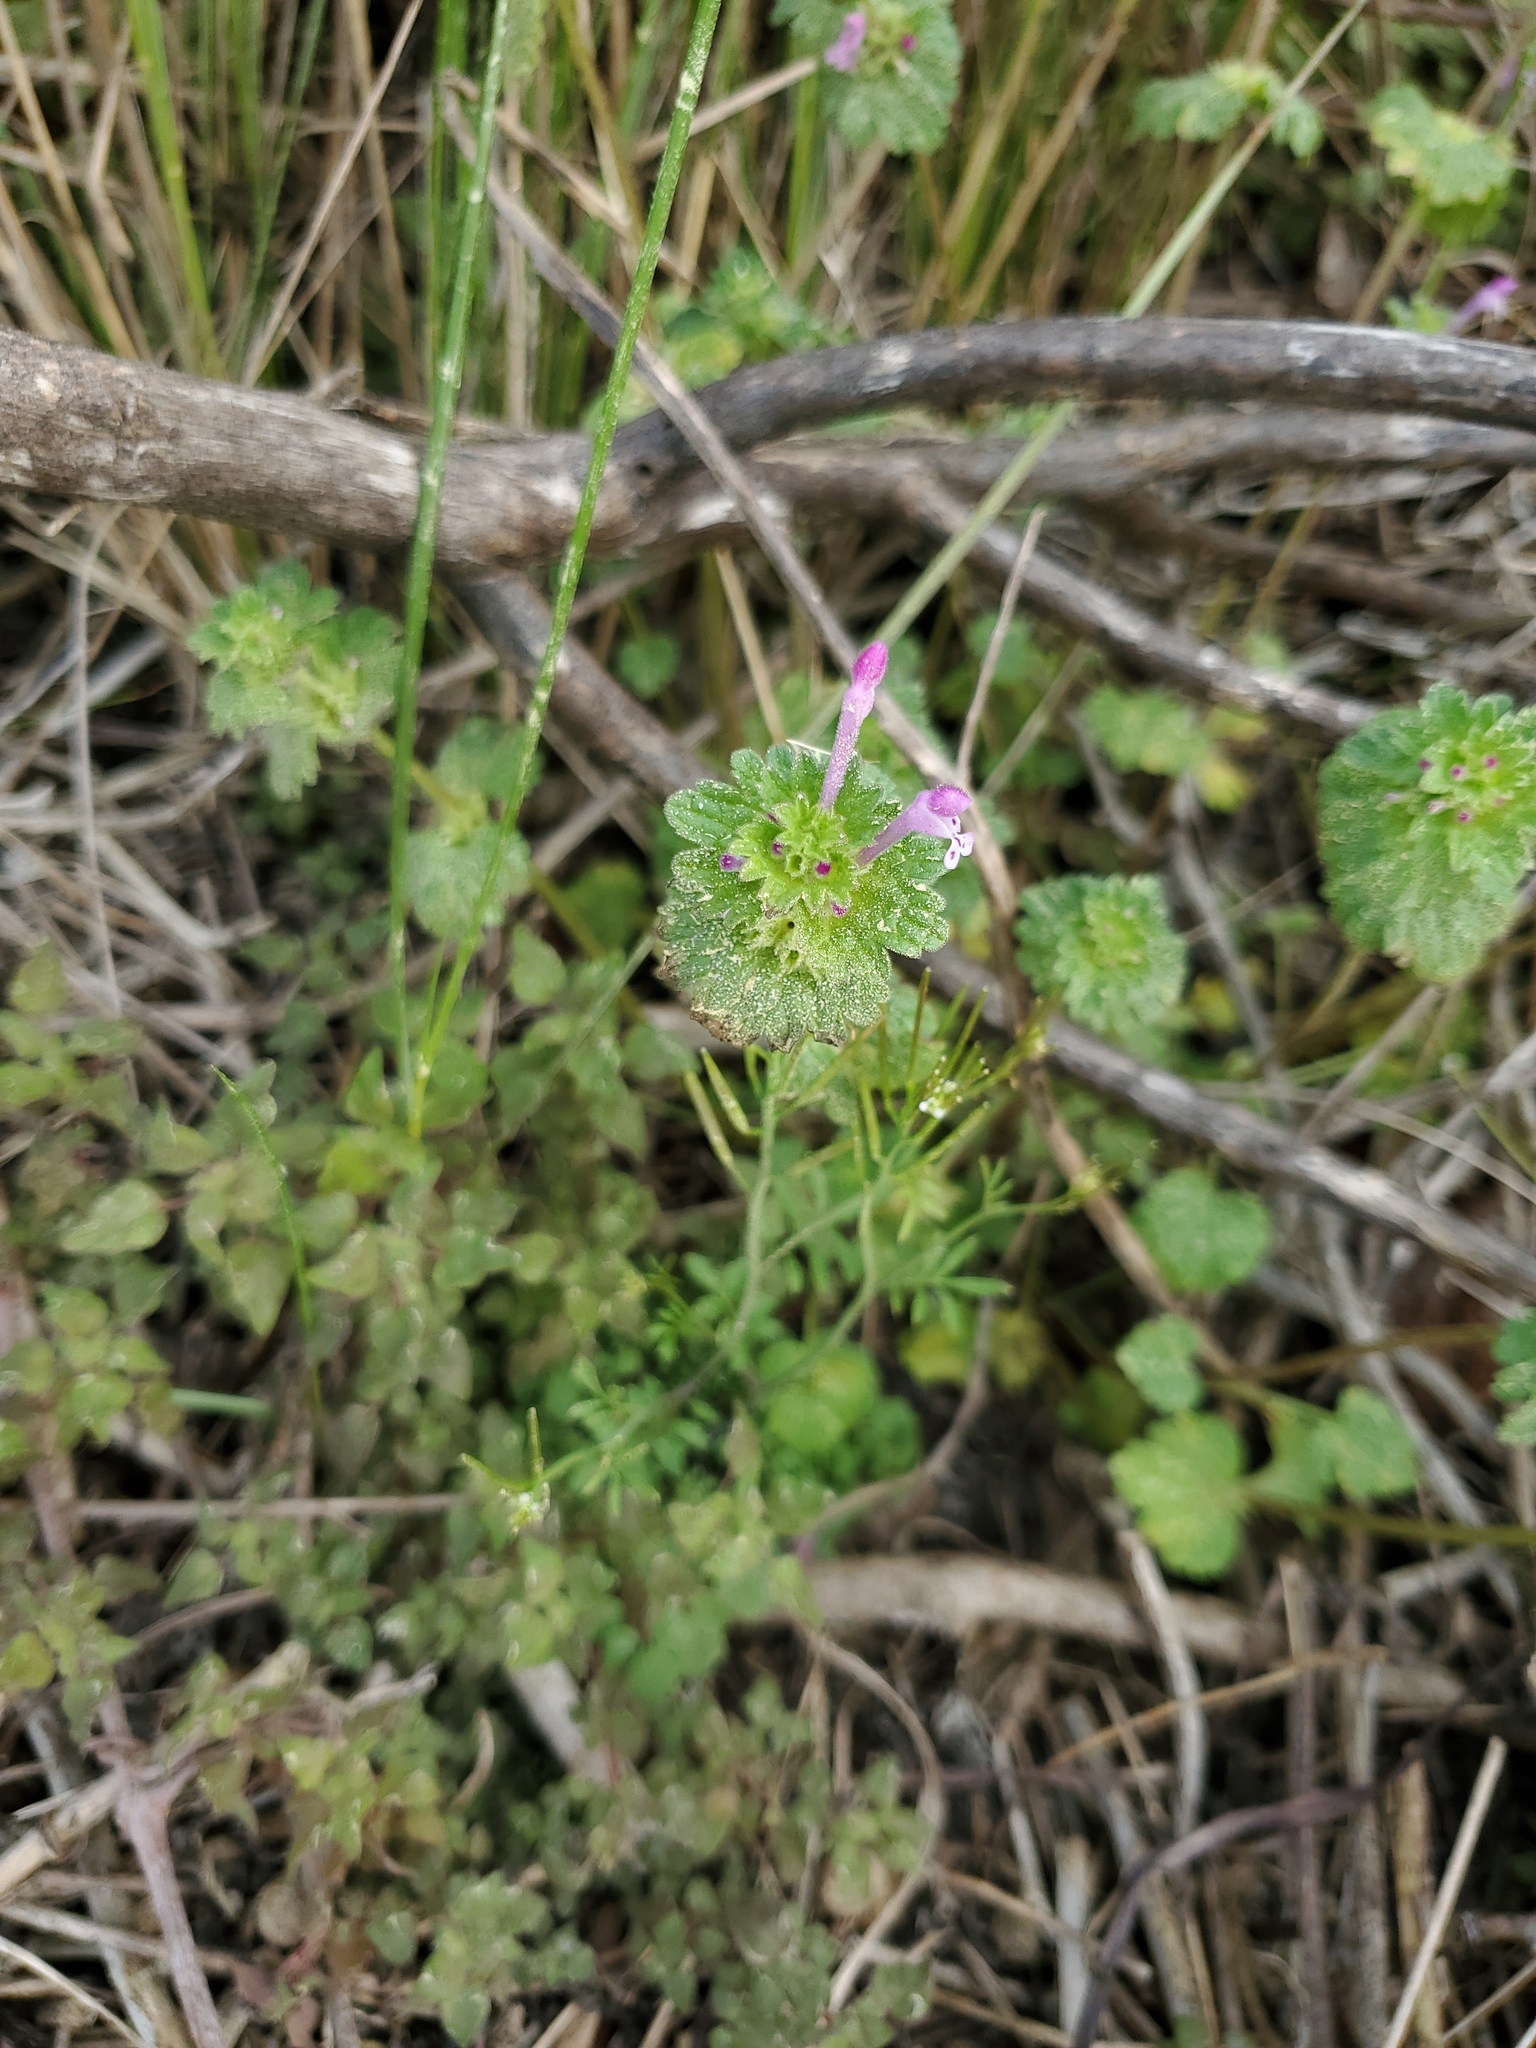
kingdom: Plantae
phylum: Tracheophyta
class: Magnoliopsida
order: Lamiales
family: Lamiaceae
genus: Lamium
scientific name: Lamium amplexicaule
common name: Henbit dead-nettle
